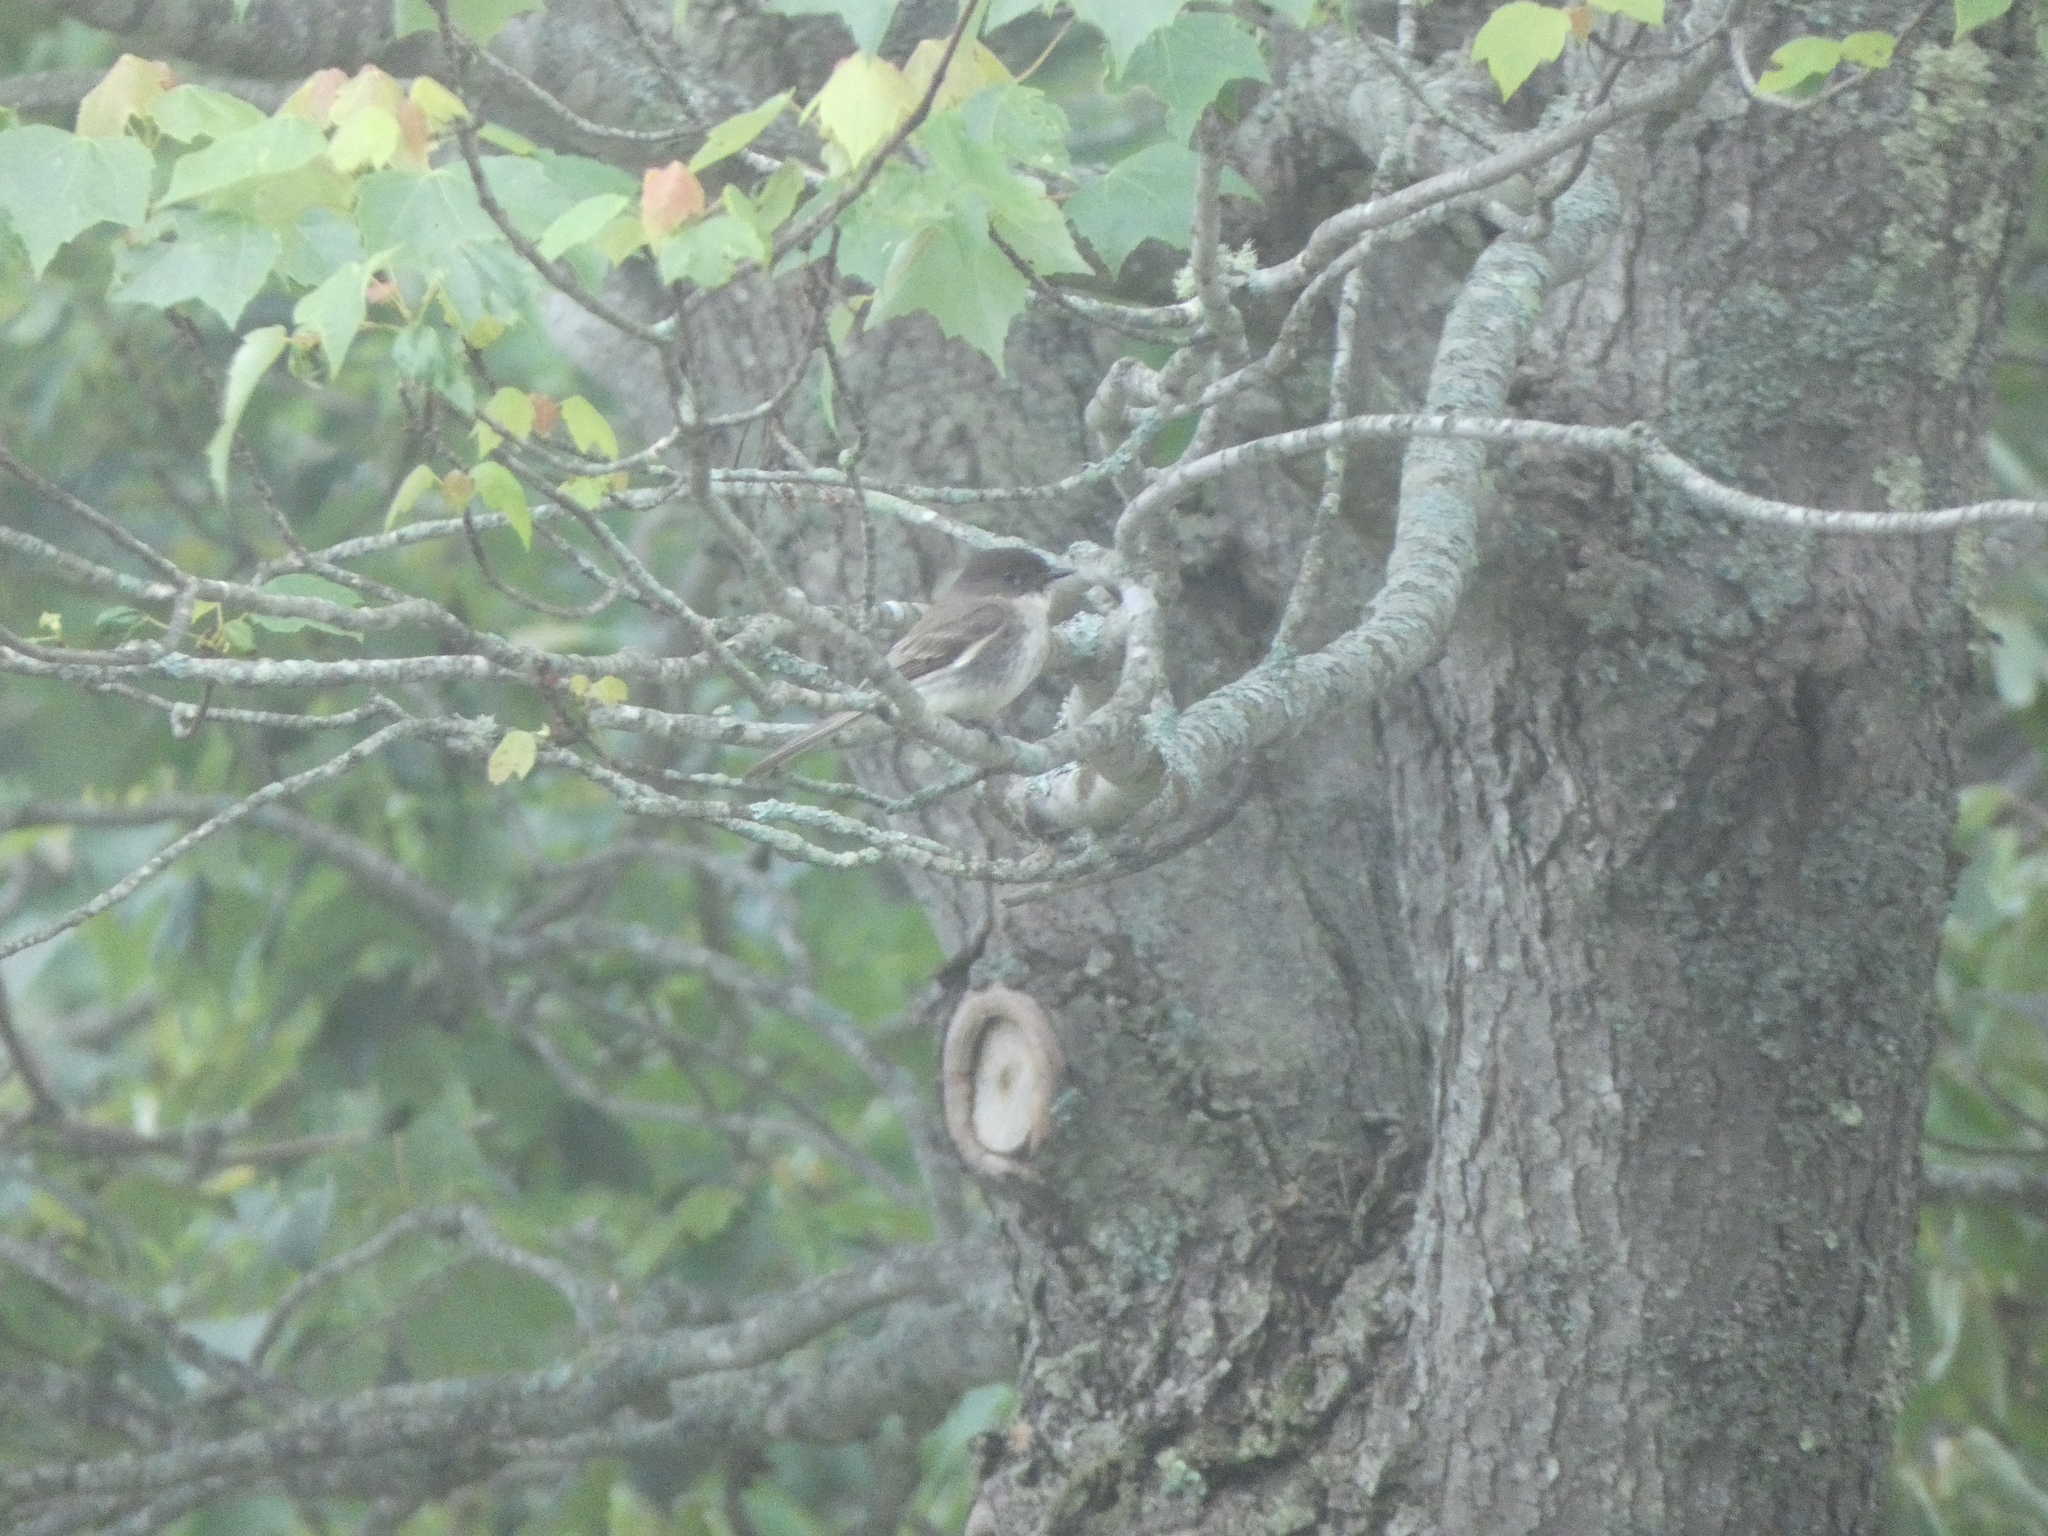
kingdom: Animalia
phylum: Chordata
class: Aves
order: Passeriformes
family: Tyrannidae
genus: Sayornis
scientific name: Sayornis phoebe
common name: Eastern phoebe
